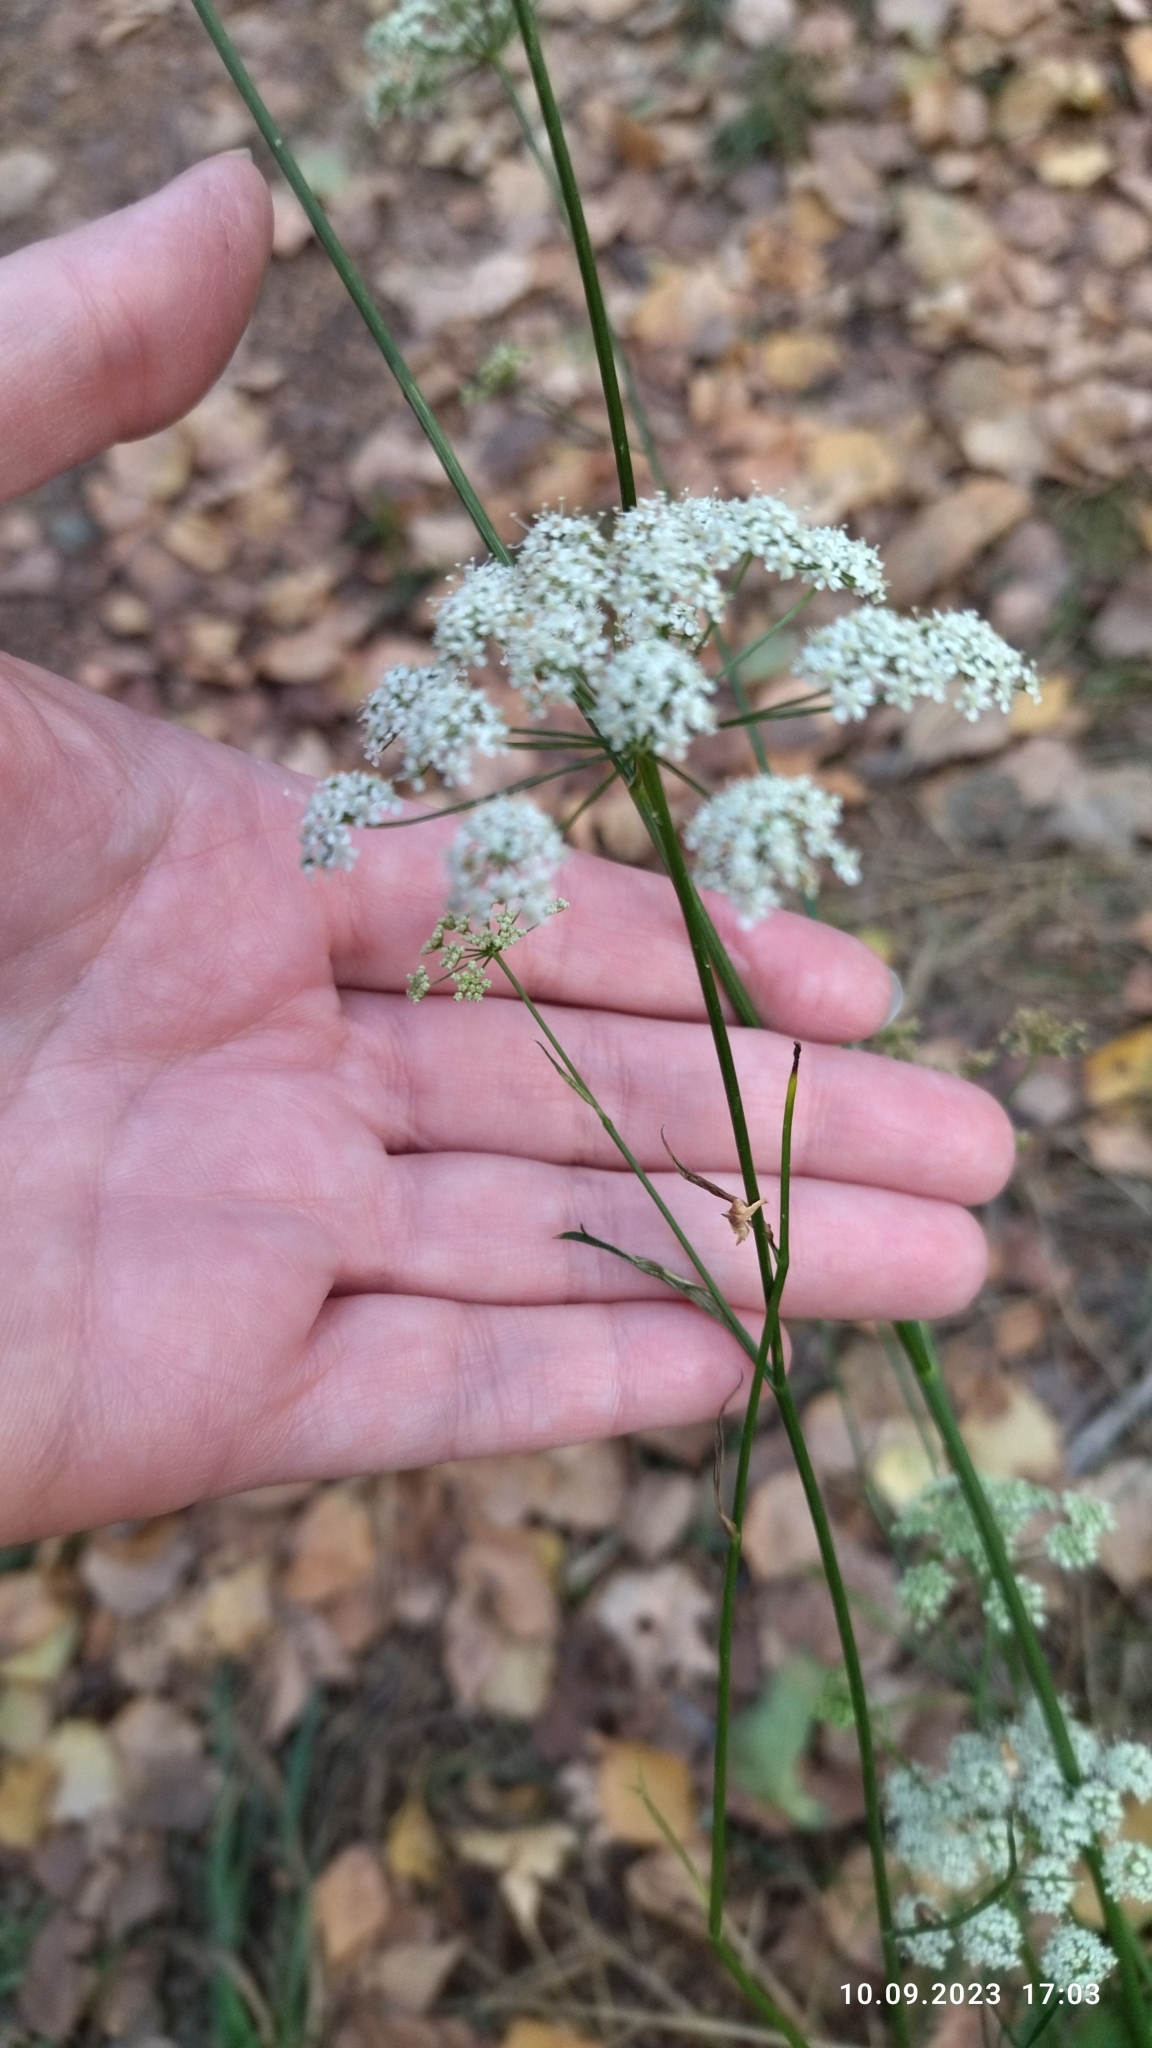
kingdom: Plantae
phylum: Tracheophyta
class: Magnoliopsida
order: Apiales
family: Apiaceae
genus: Pimpinella
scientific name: Pimpinella saxifraga
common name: Burnet-saxifrage
